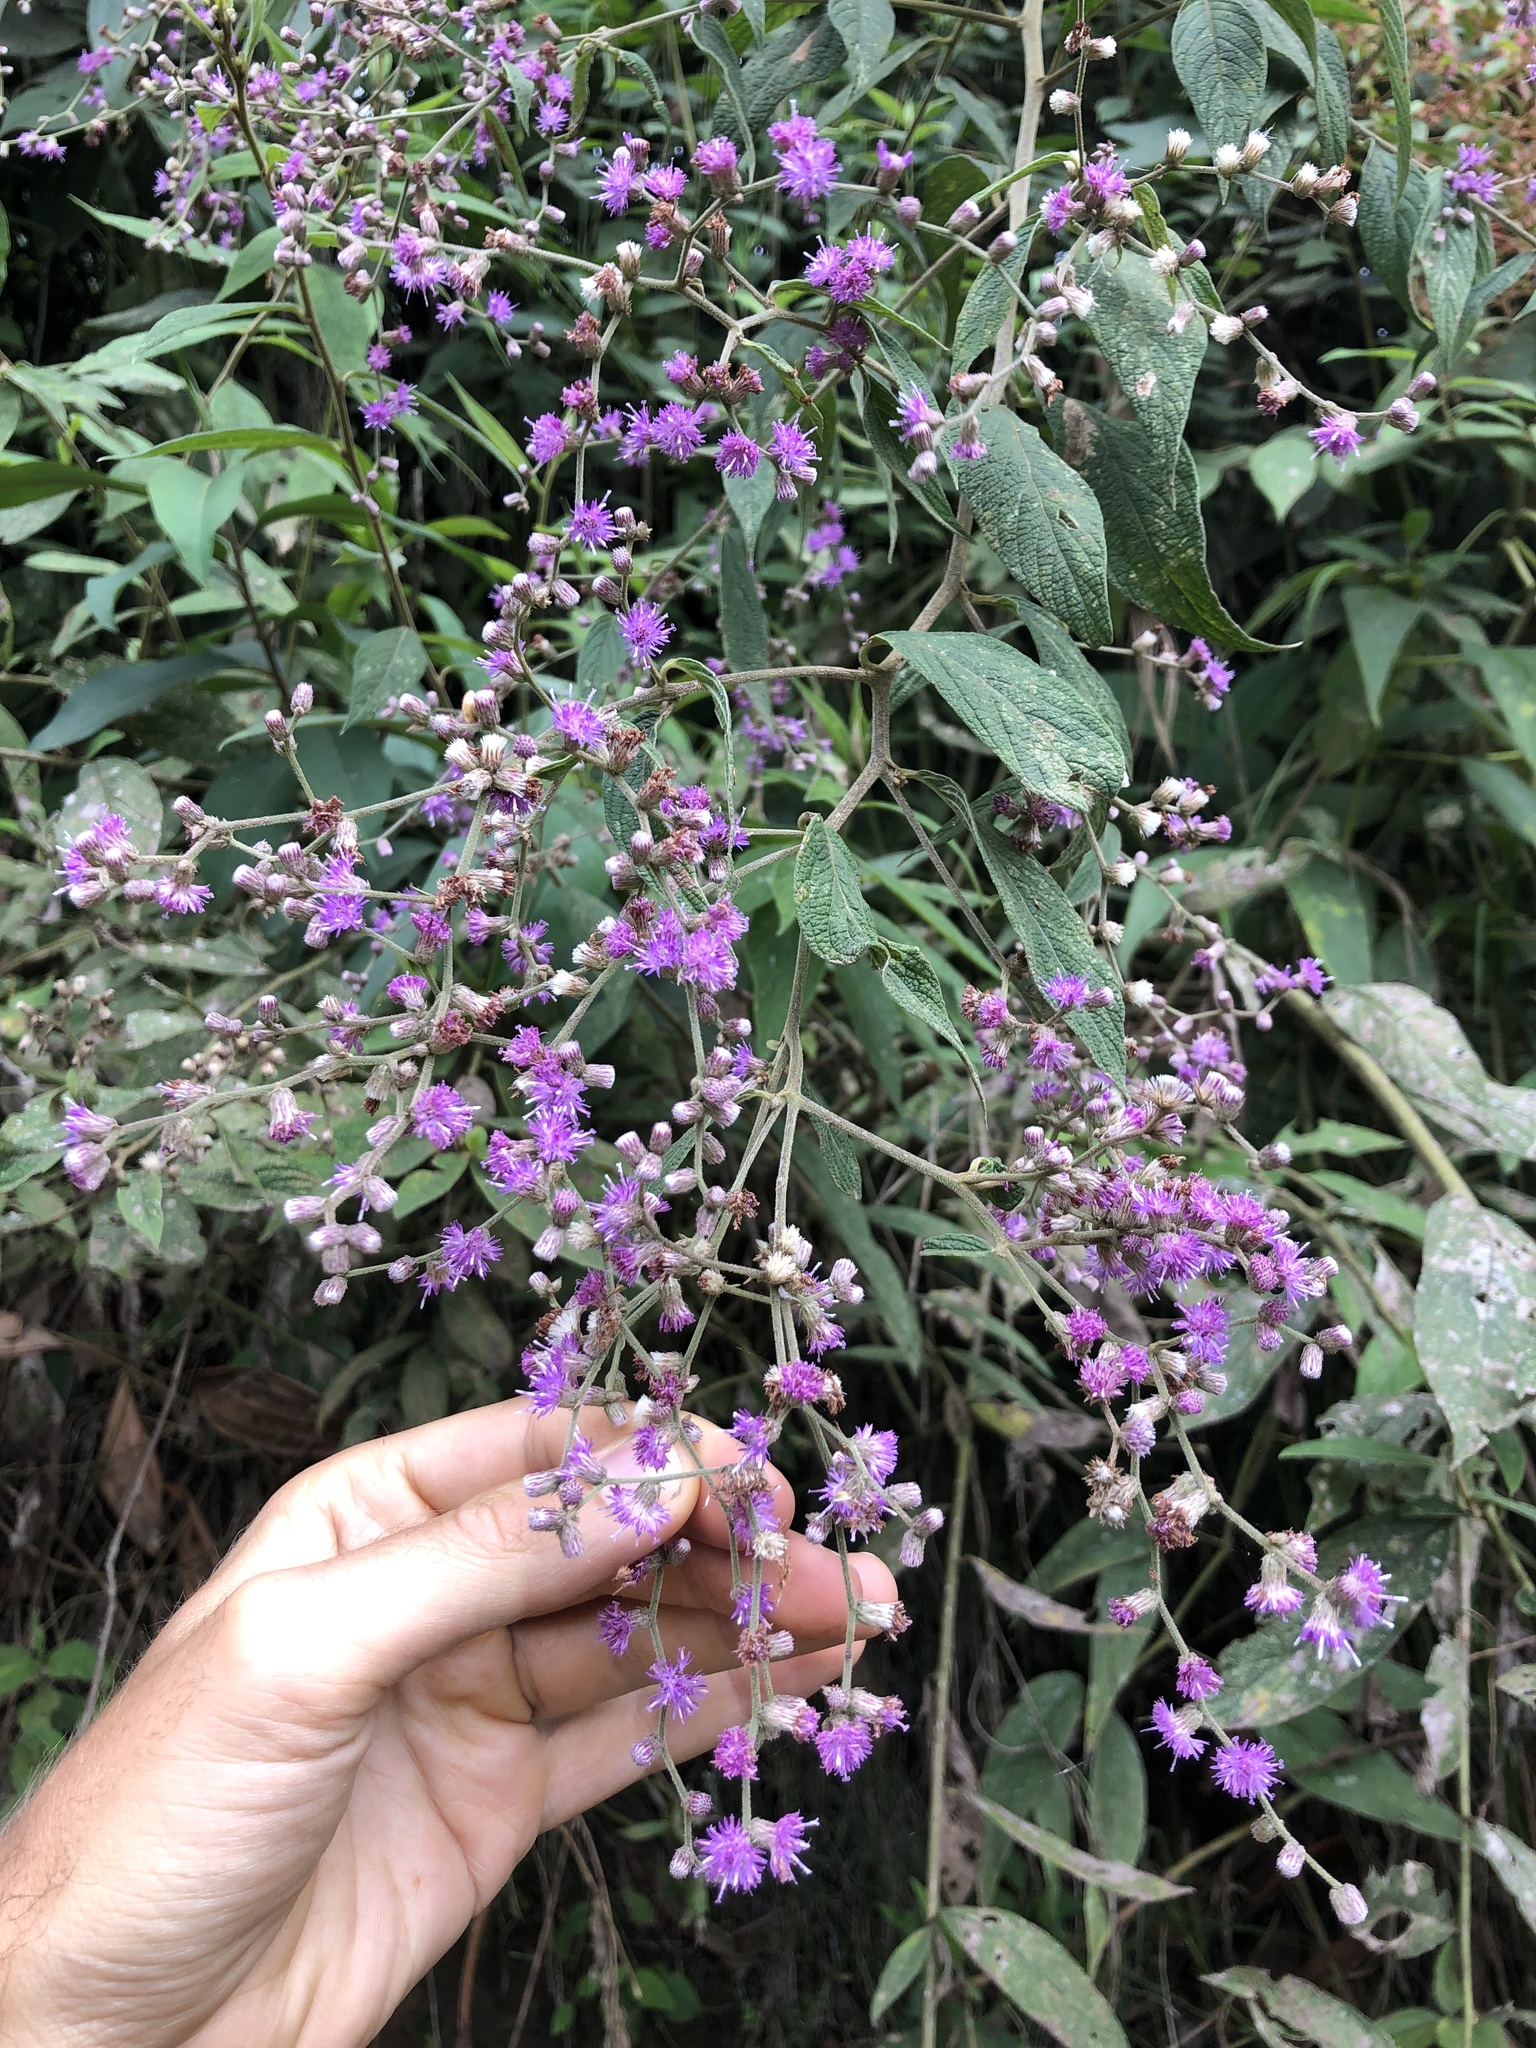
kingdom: Plantae
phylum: Tracheophyta
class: Magnoliopsida
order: Asterales
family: Asteraceae
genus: Lepidaploa
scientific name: Lepidaploa trilectorum
